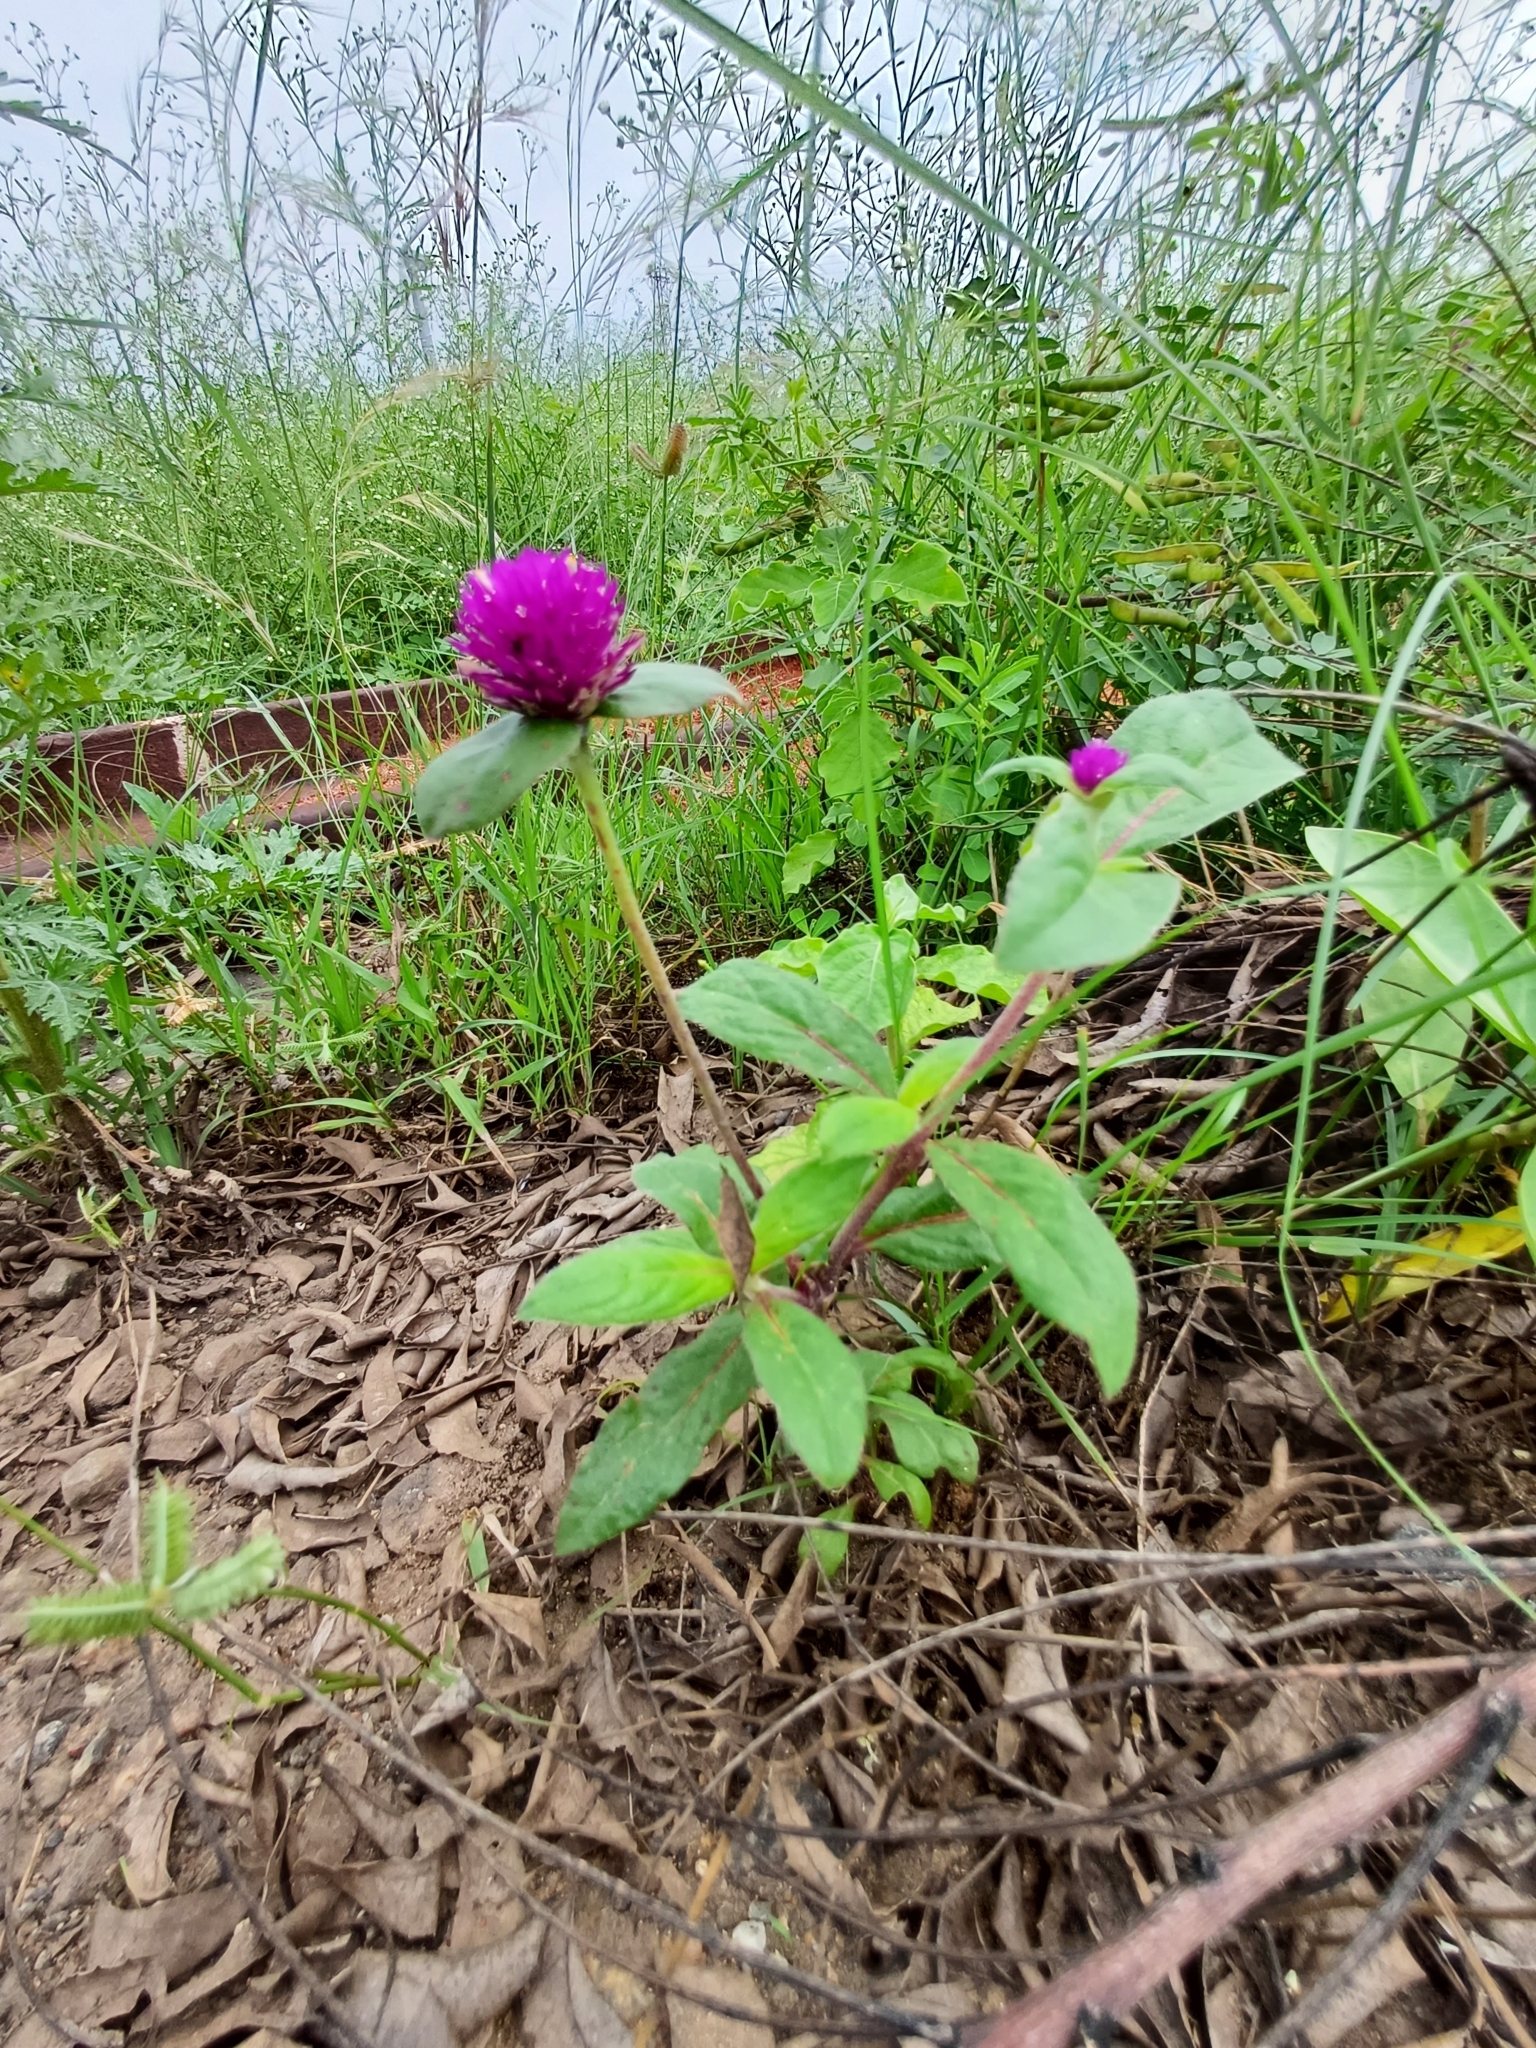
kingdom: Plantae
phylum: Tracheophyta
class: Magnoliopsida
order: Caryophyllales
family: Amaranthaceae
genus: Gomphrena
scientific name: Gomphrena globosa
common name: Common globe amaranth
